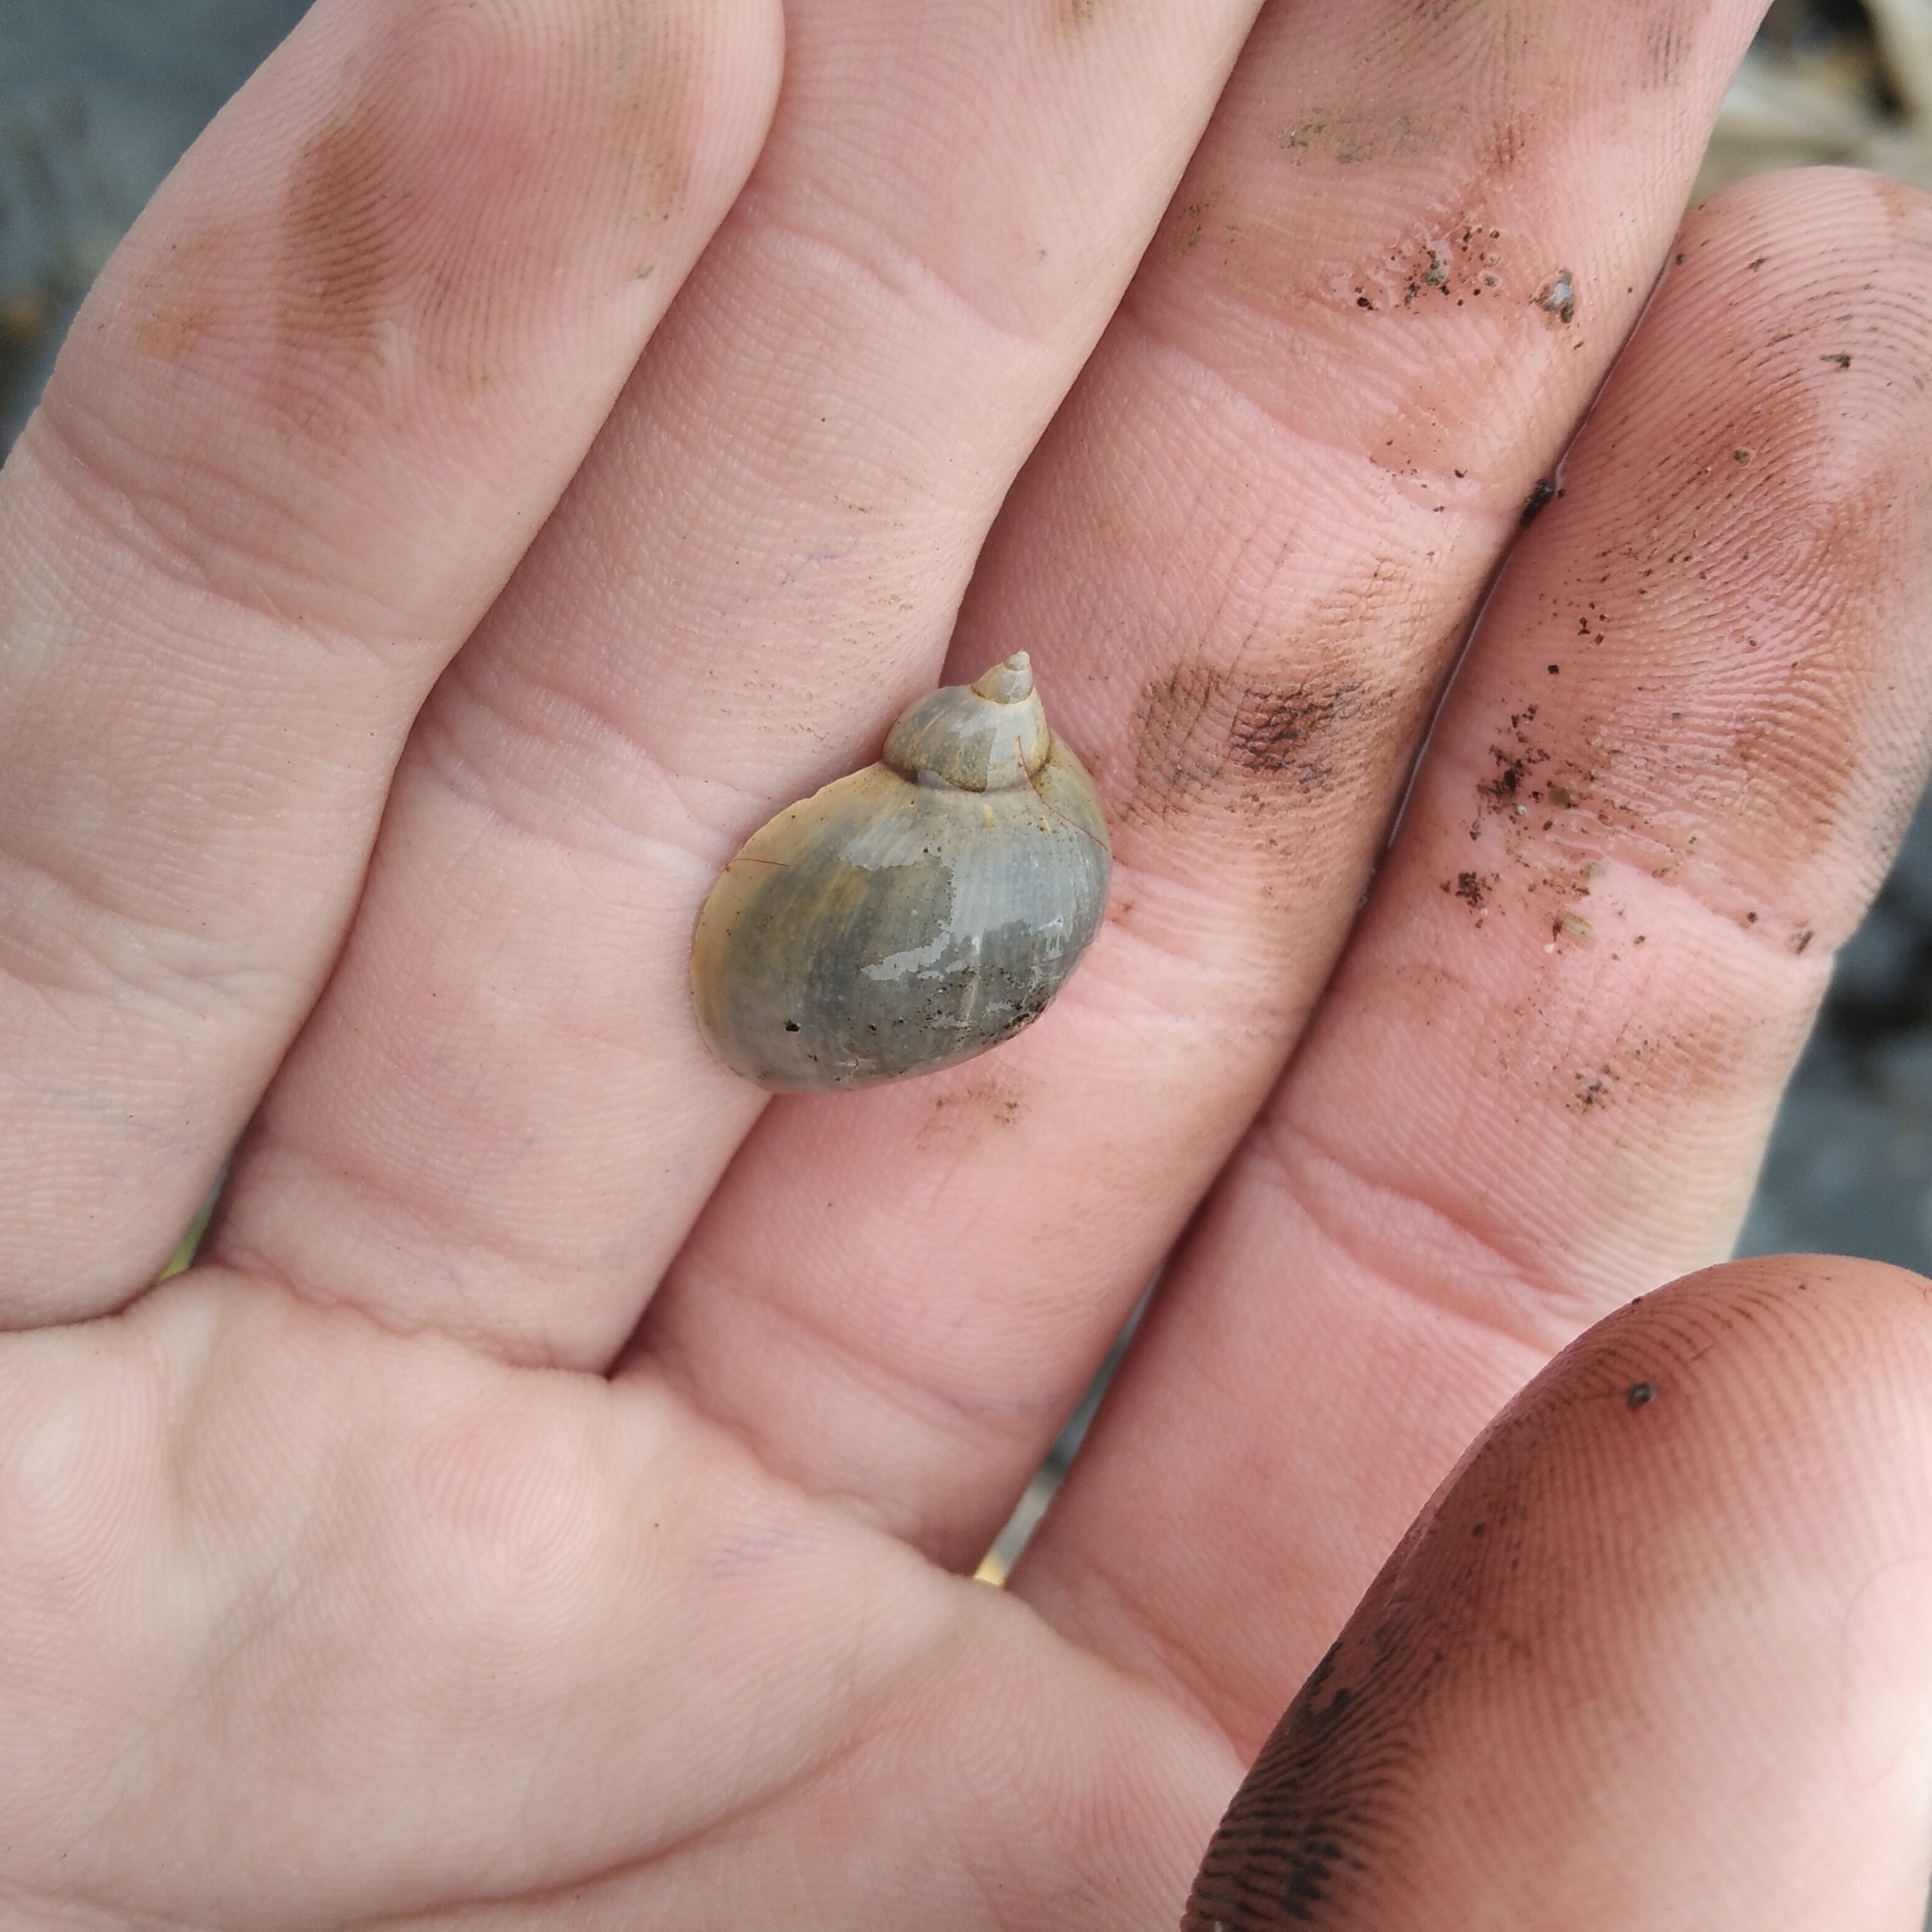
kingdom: Animalia
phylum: Mollusca
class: Gastropoda
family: Lymnaeidae
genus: Ampullaceana
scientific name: Ampullaceana balthica
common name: Wandering pond snail
